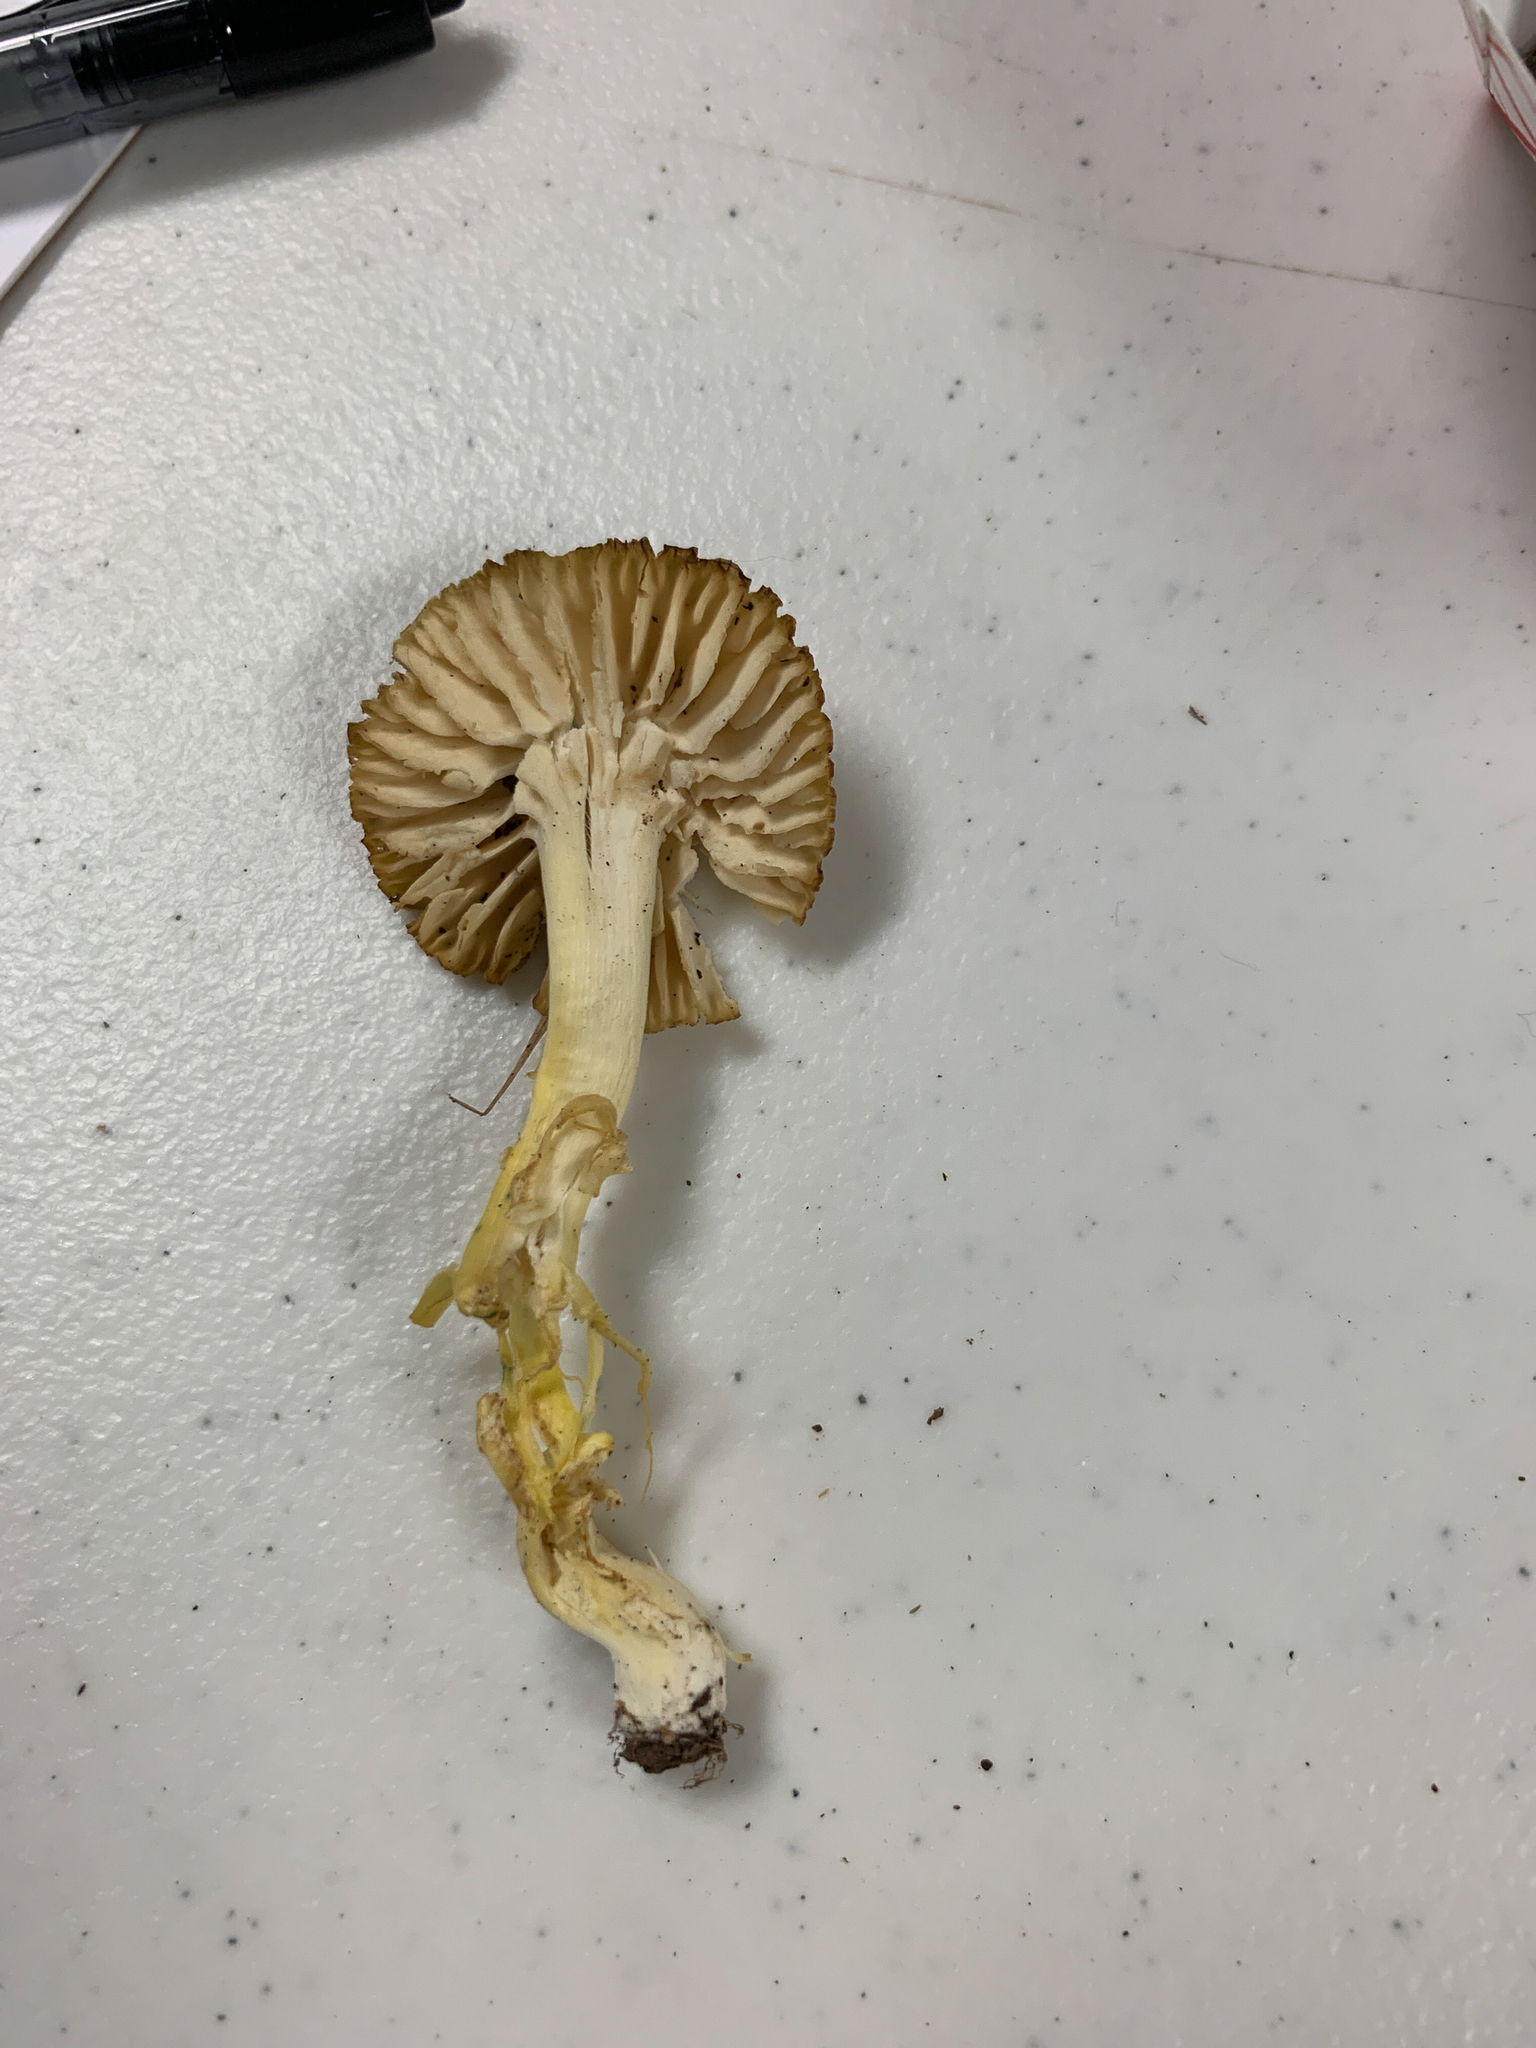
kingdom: Fungi
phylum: Basidiomycota
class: Agaricomycetes
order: Agaricales
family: Hygrophoraceae
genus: Hygrocybe
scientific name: Hygrocybe caespitosa
